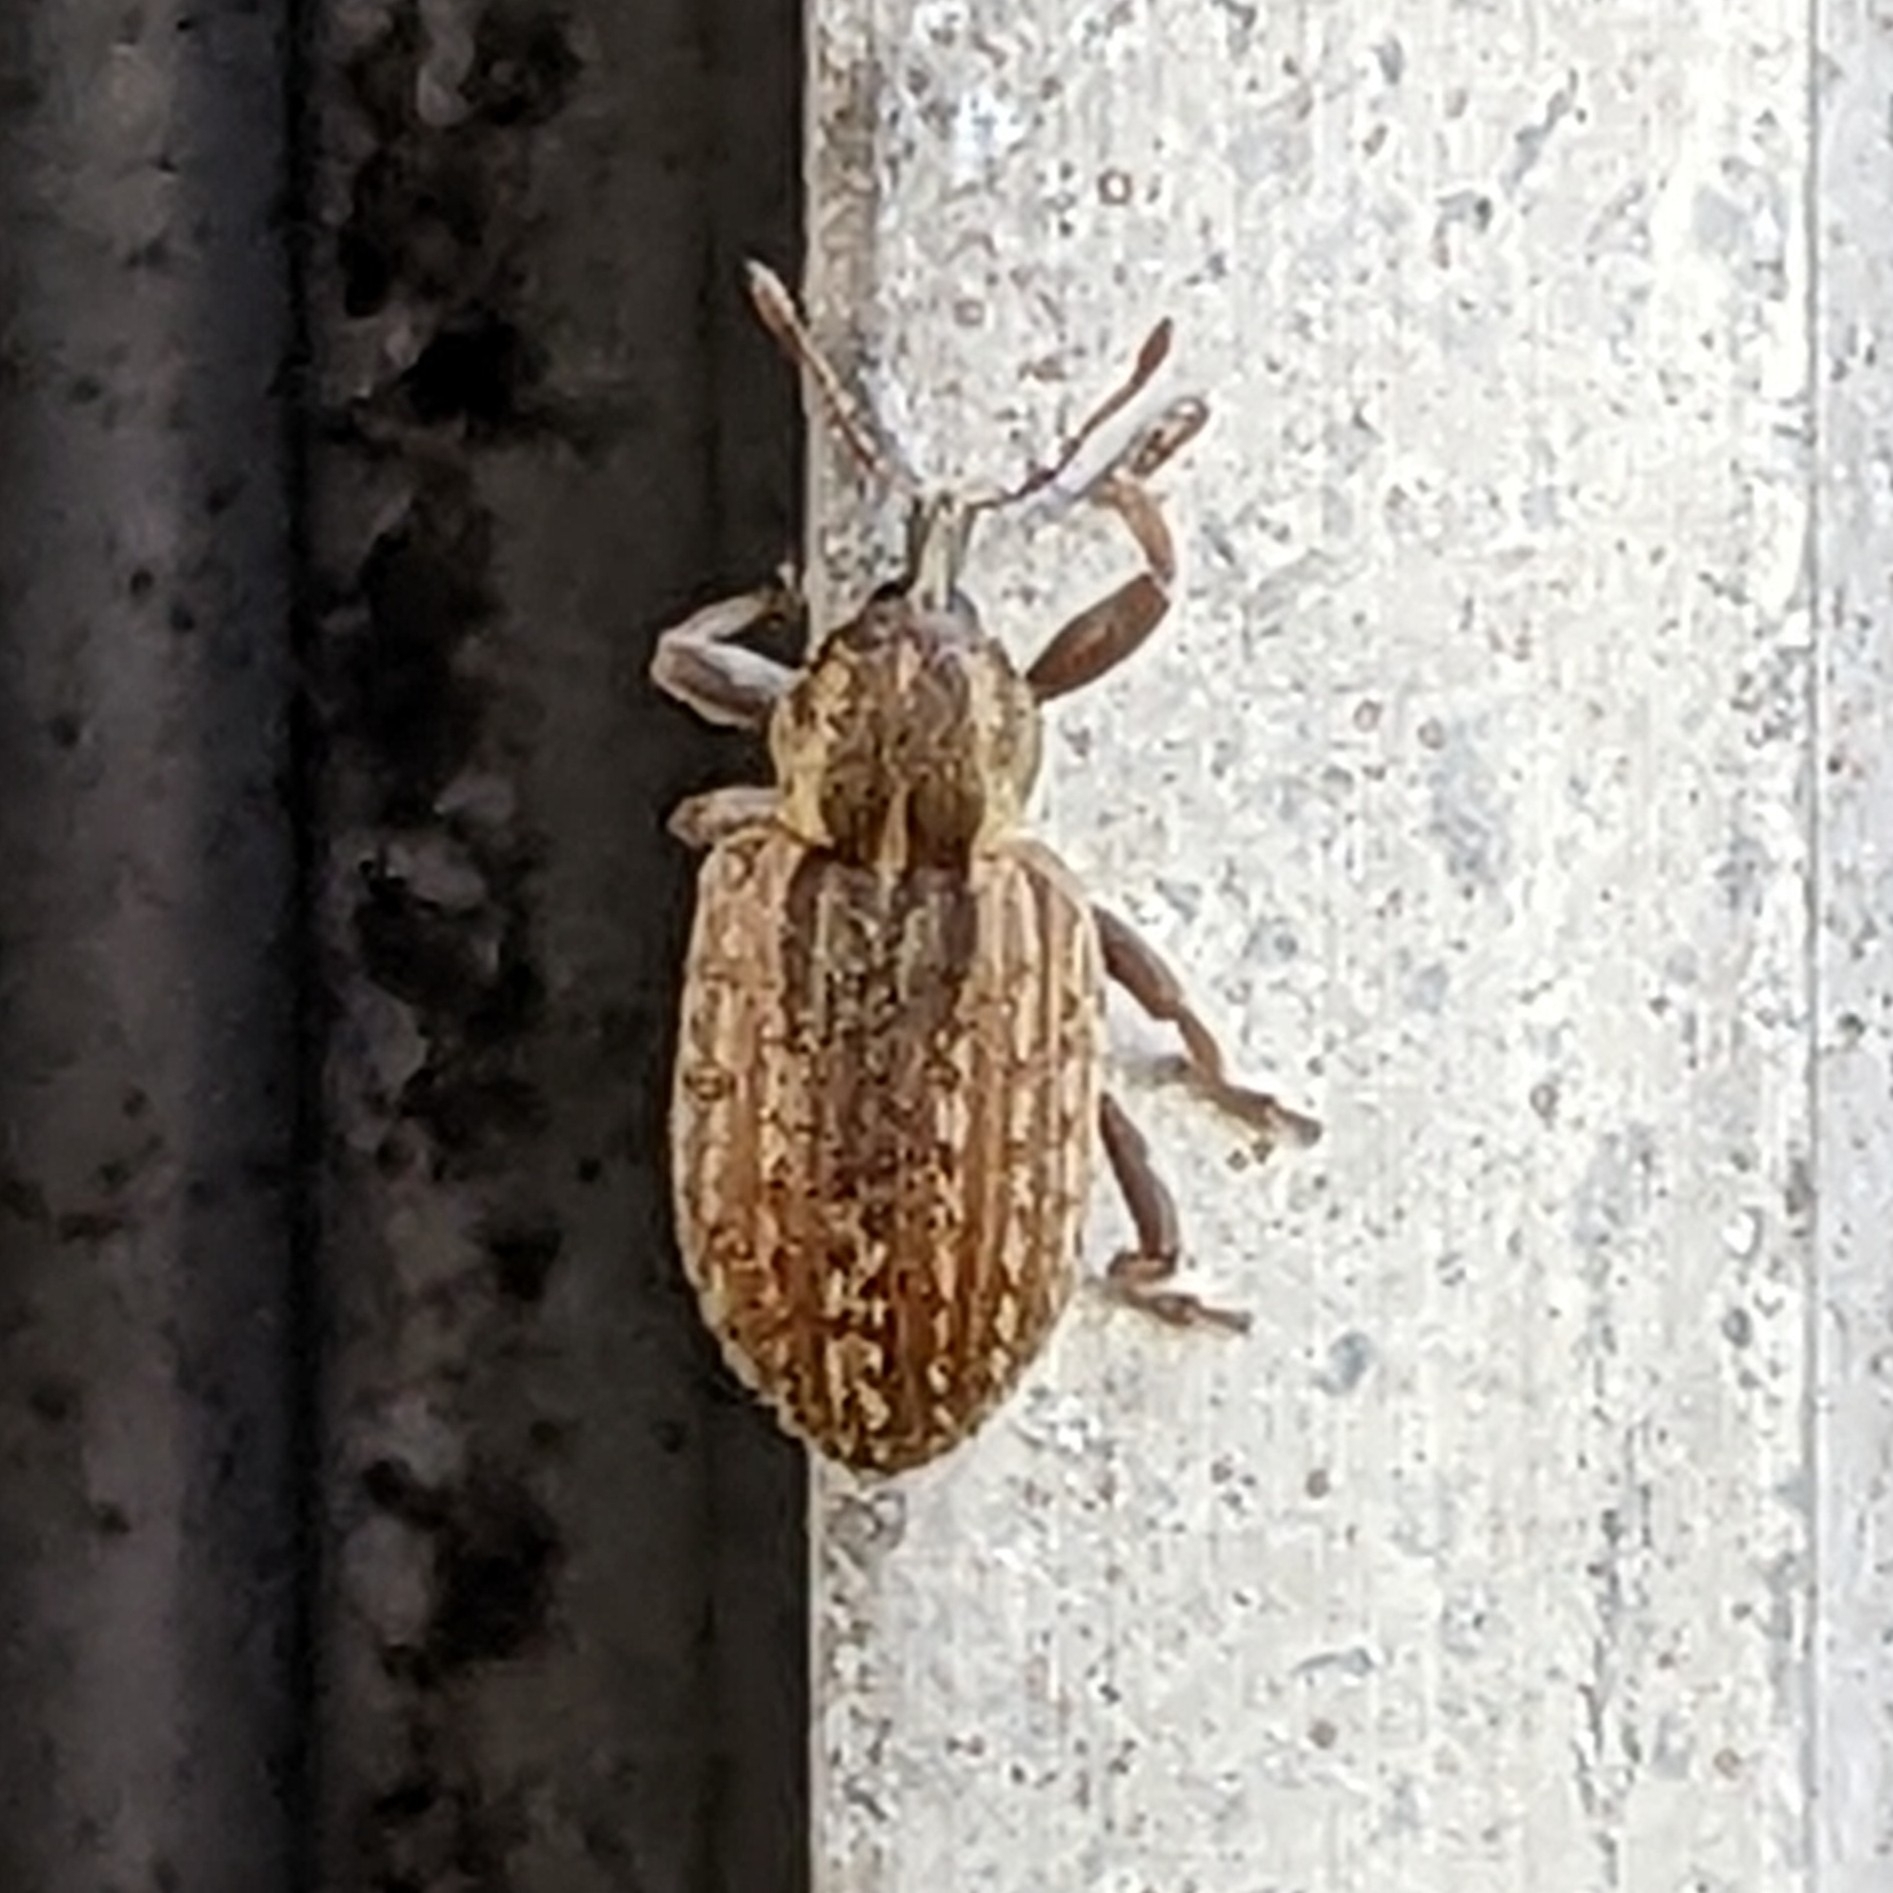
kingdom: Animalia
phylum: Arthropoda
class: Insecta
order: Coleoptera
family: Curculionidae
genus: Hypera
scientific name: Hypera postica
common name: Weevil
